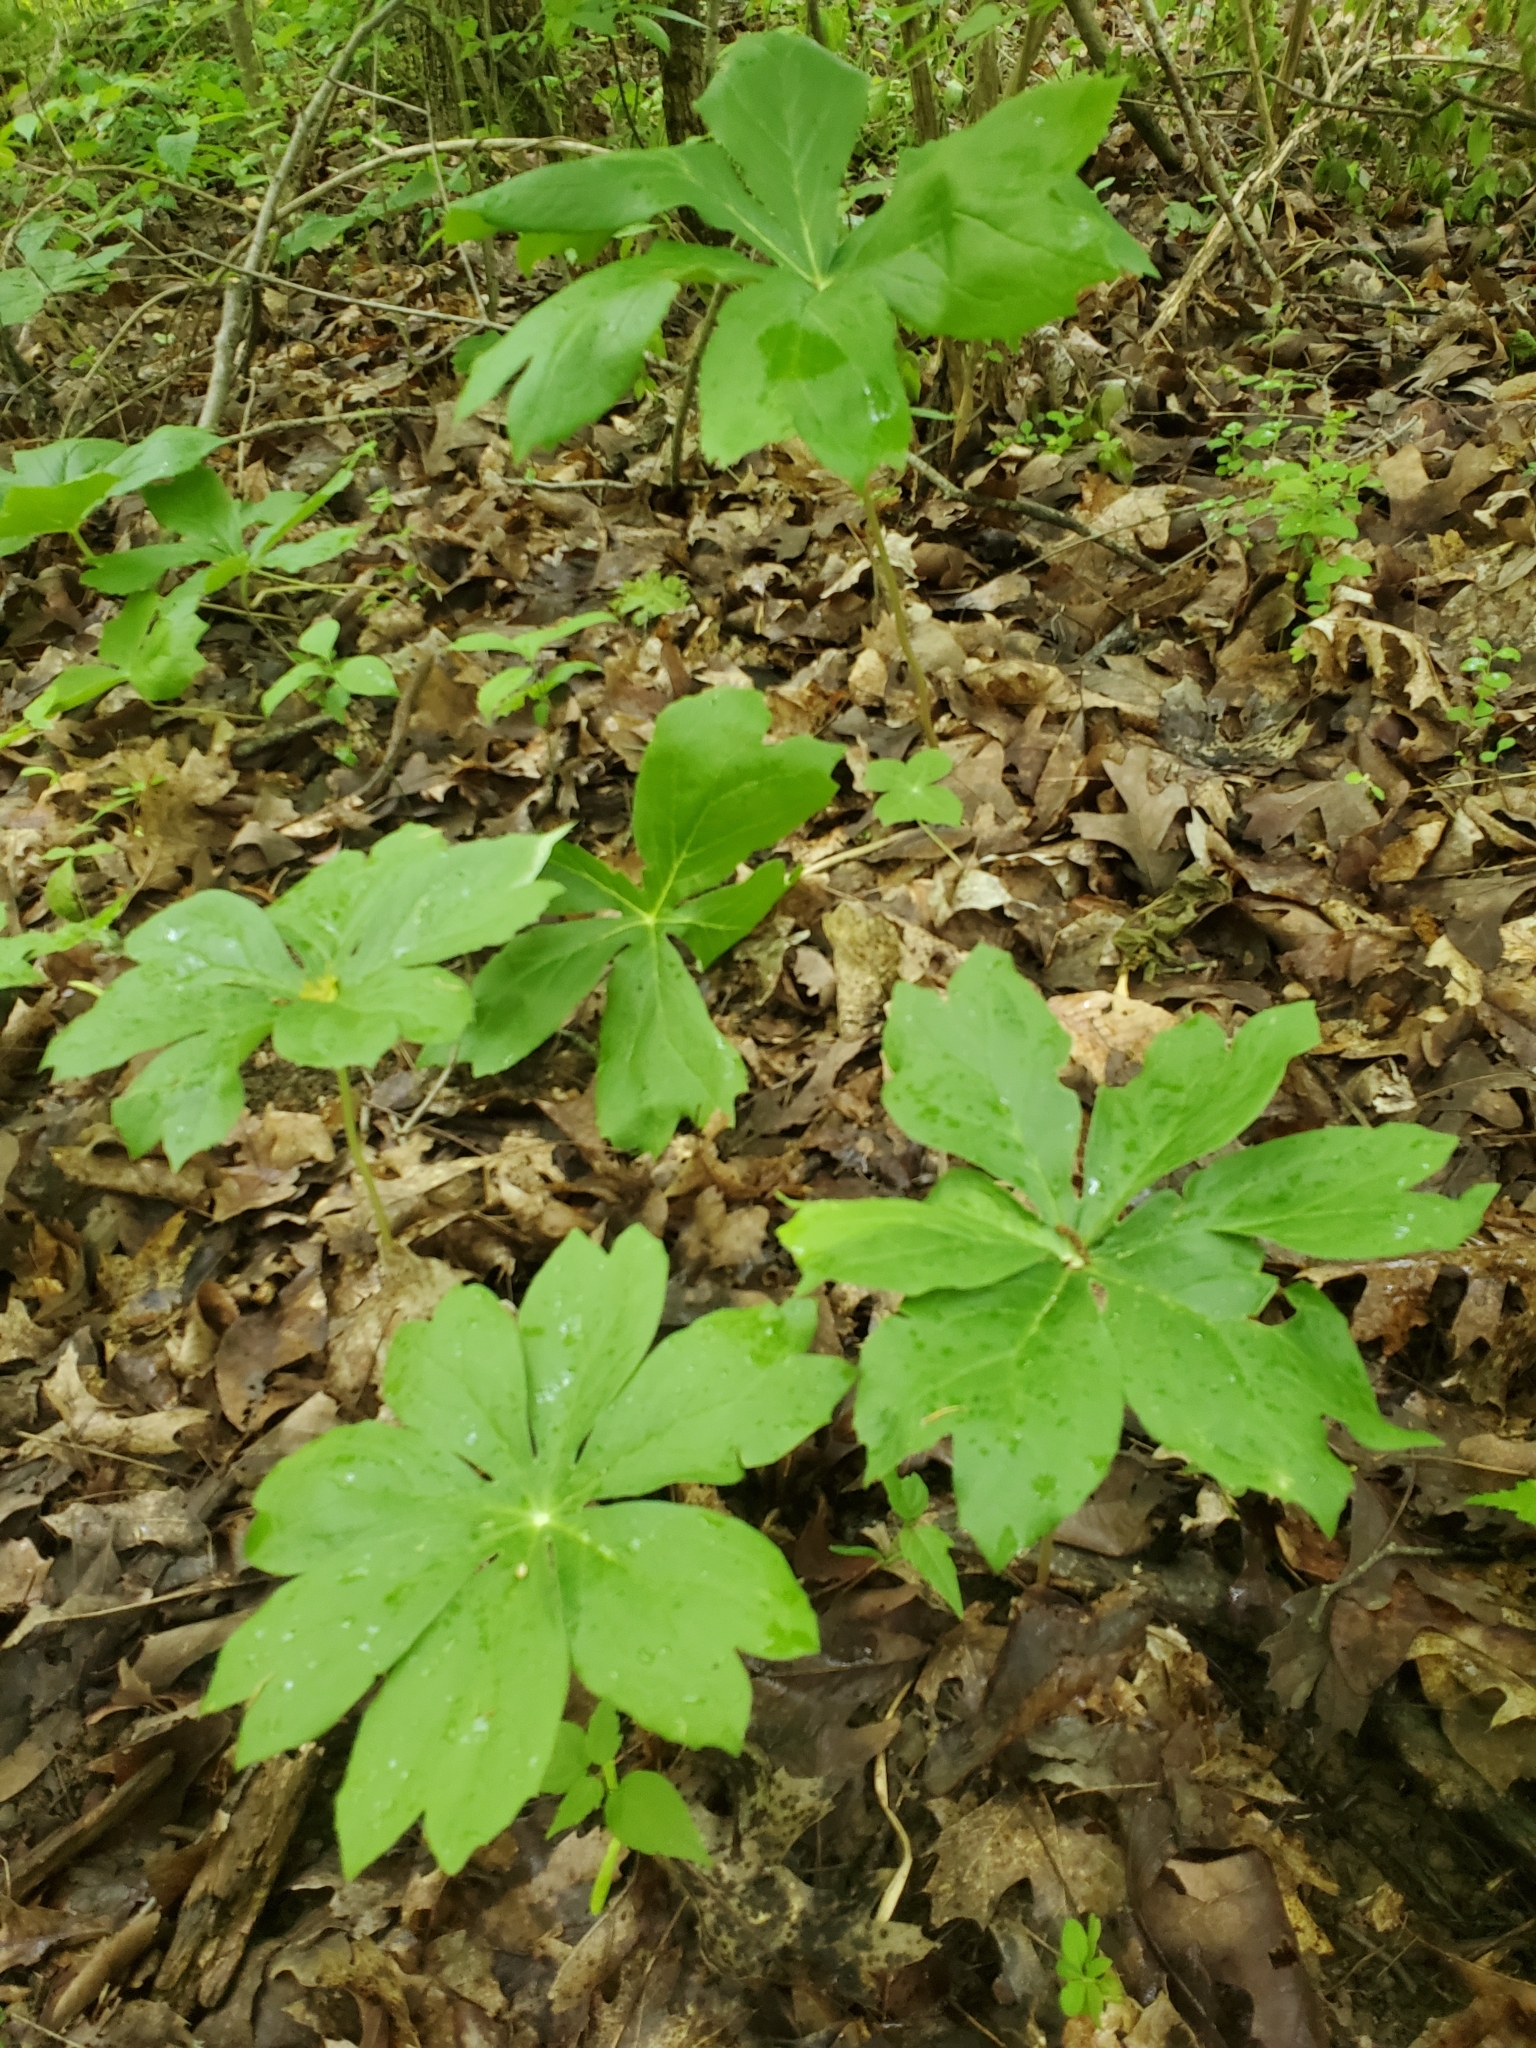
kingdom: Plantae
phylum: Tracheophyta
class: Magnoliopsida
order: Ranunculales
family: Berberidaceae
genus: Podophyllum
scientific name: Podophyllum peltatum
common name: Wild mandrake
